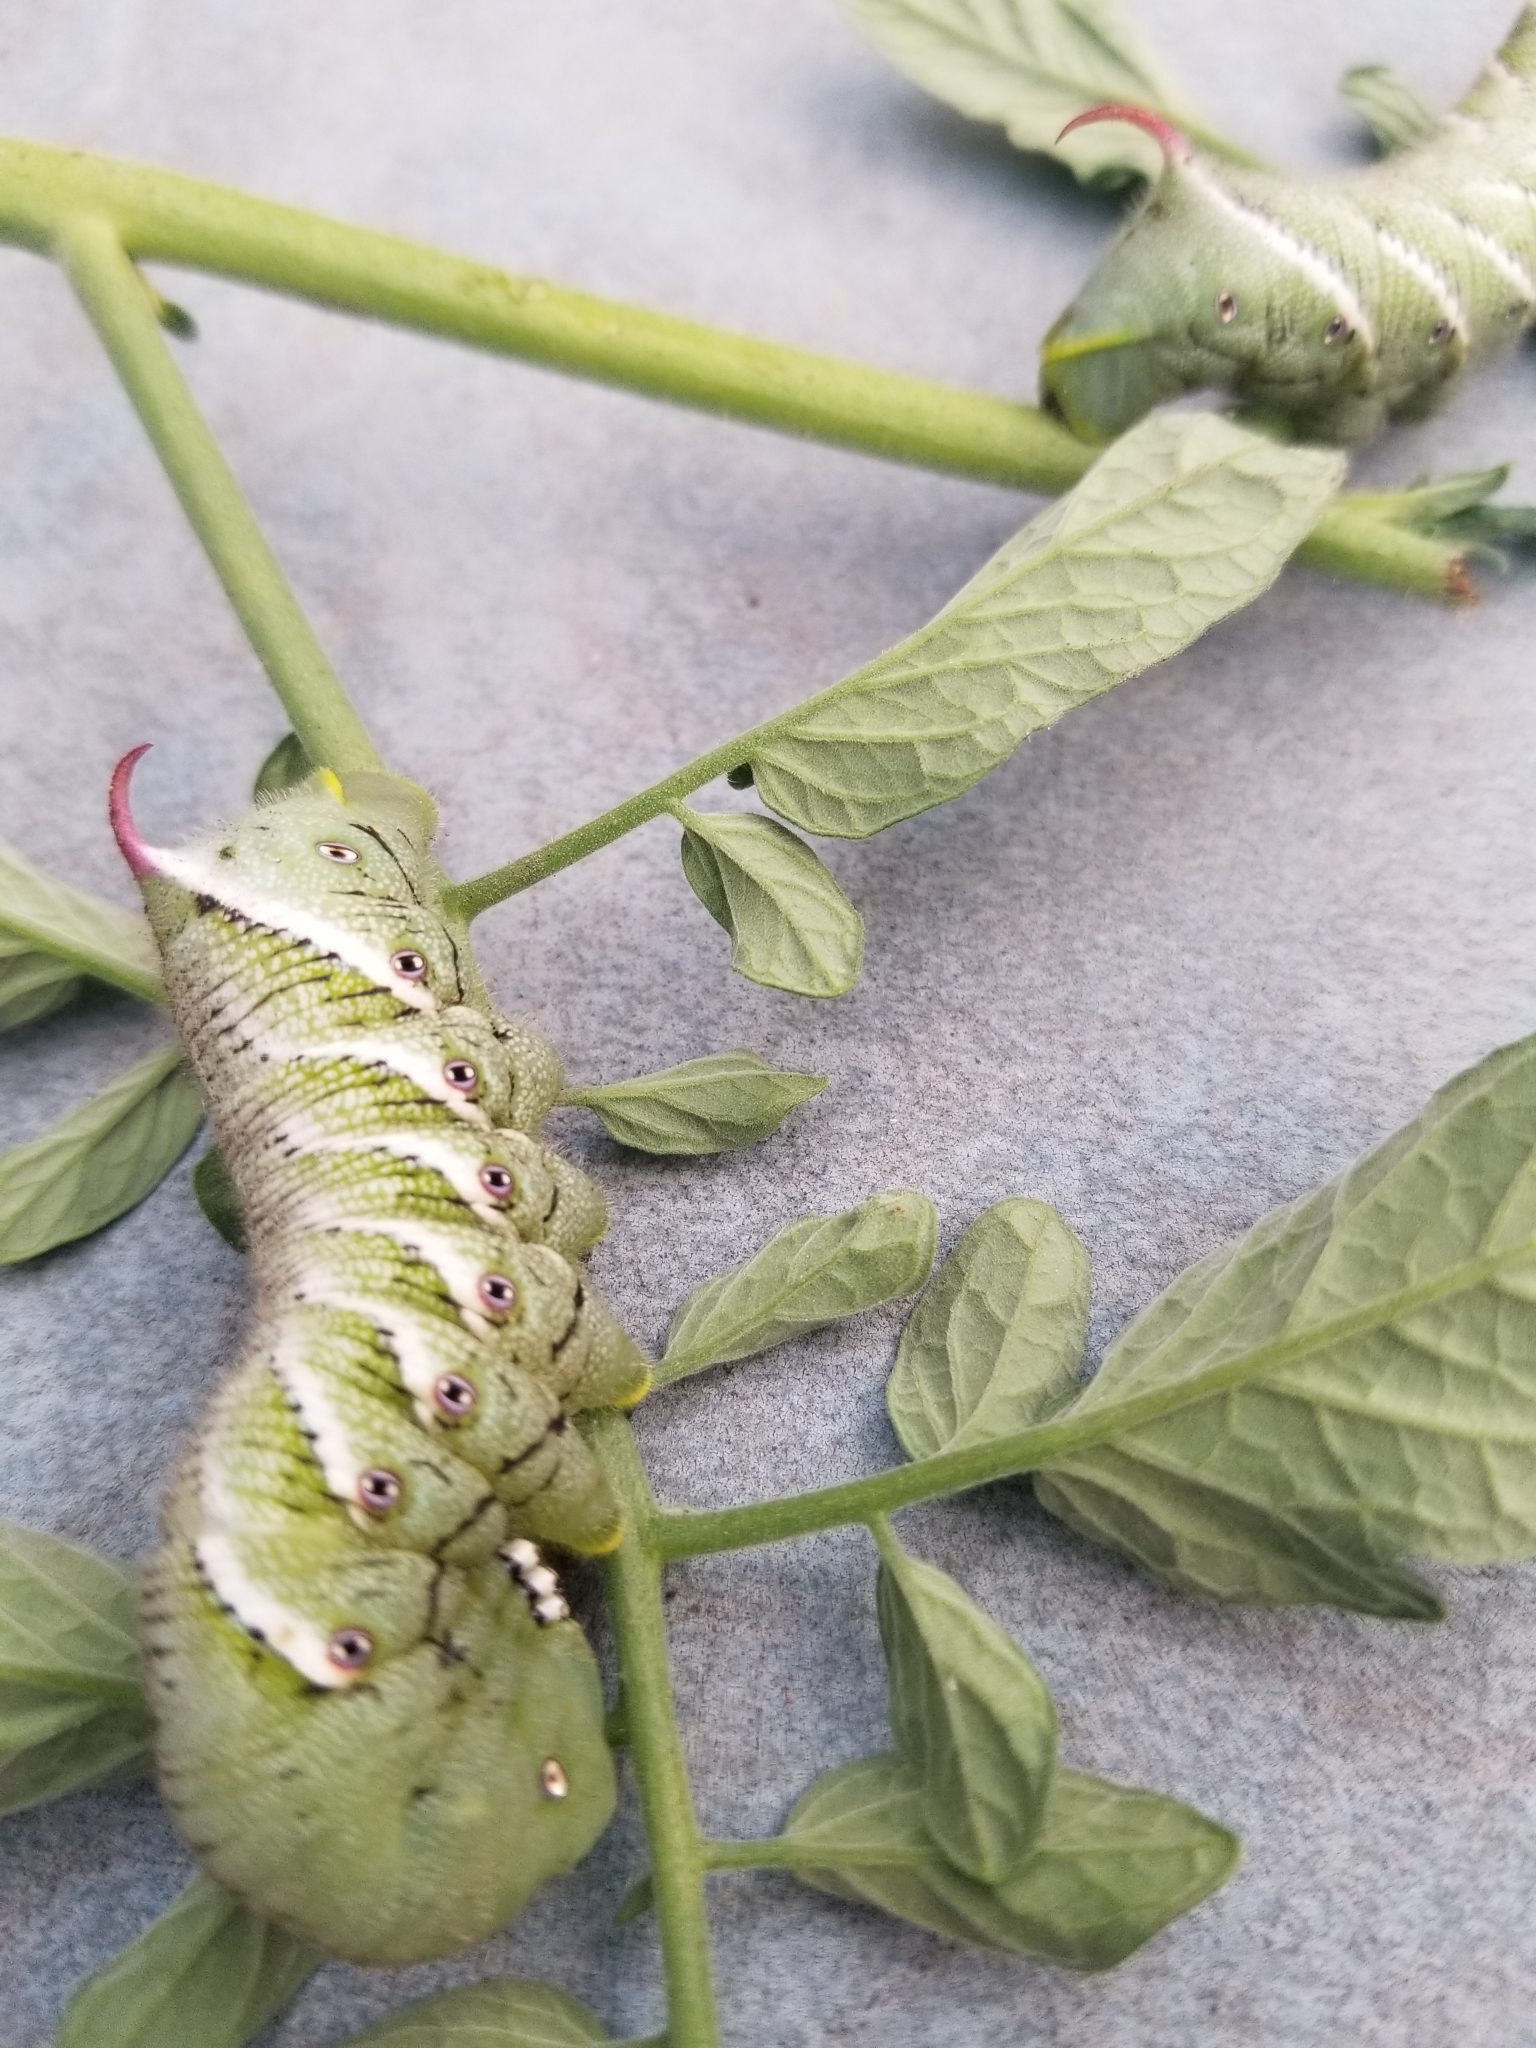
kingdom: Animalia
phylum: Arthropoda
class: Insecta
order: Lepidoptera
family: Sphingidae
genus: Manduca
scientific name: Manduca sexta
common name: Carolina sphinx
